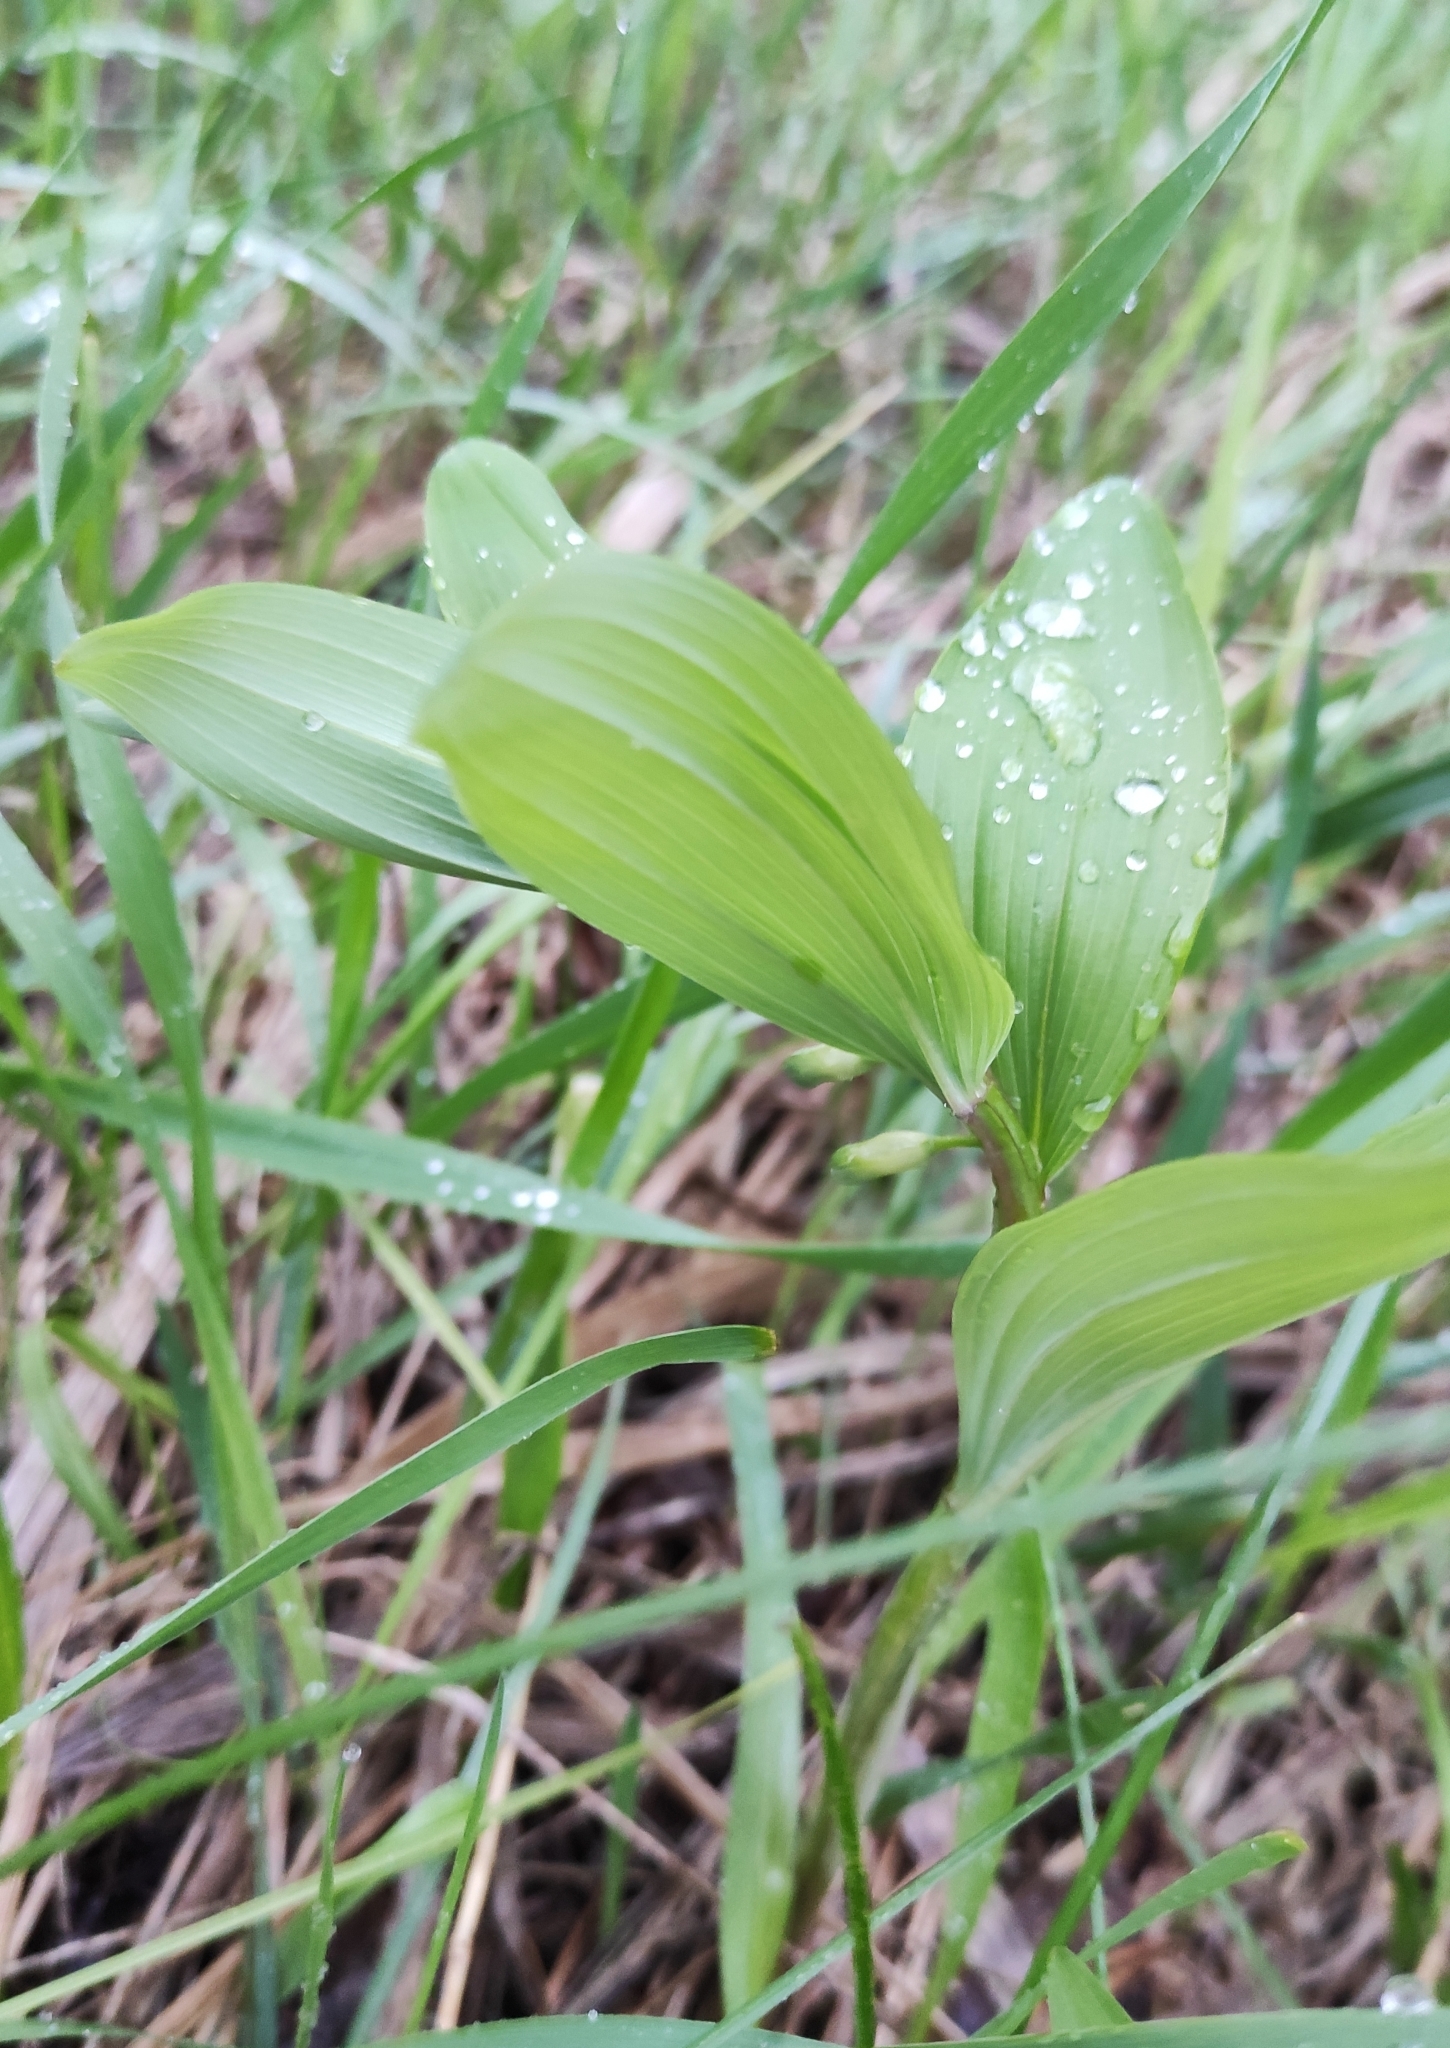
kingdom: Plantae
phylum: Tracheophyta
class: Liliopsida
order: Asparagales
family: Asparagaceae
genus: Polygonatum
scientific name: Polygonatum odoratum
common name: Angular solomon's-seal
